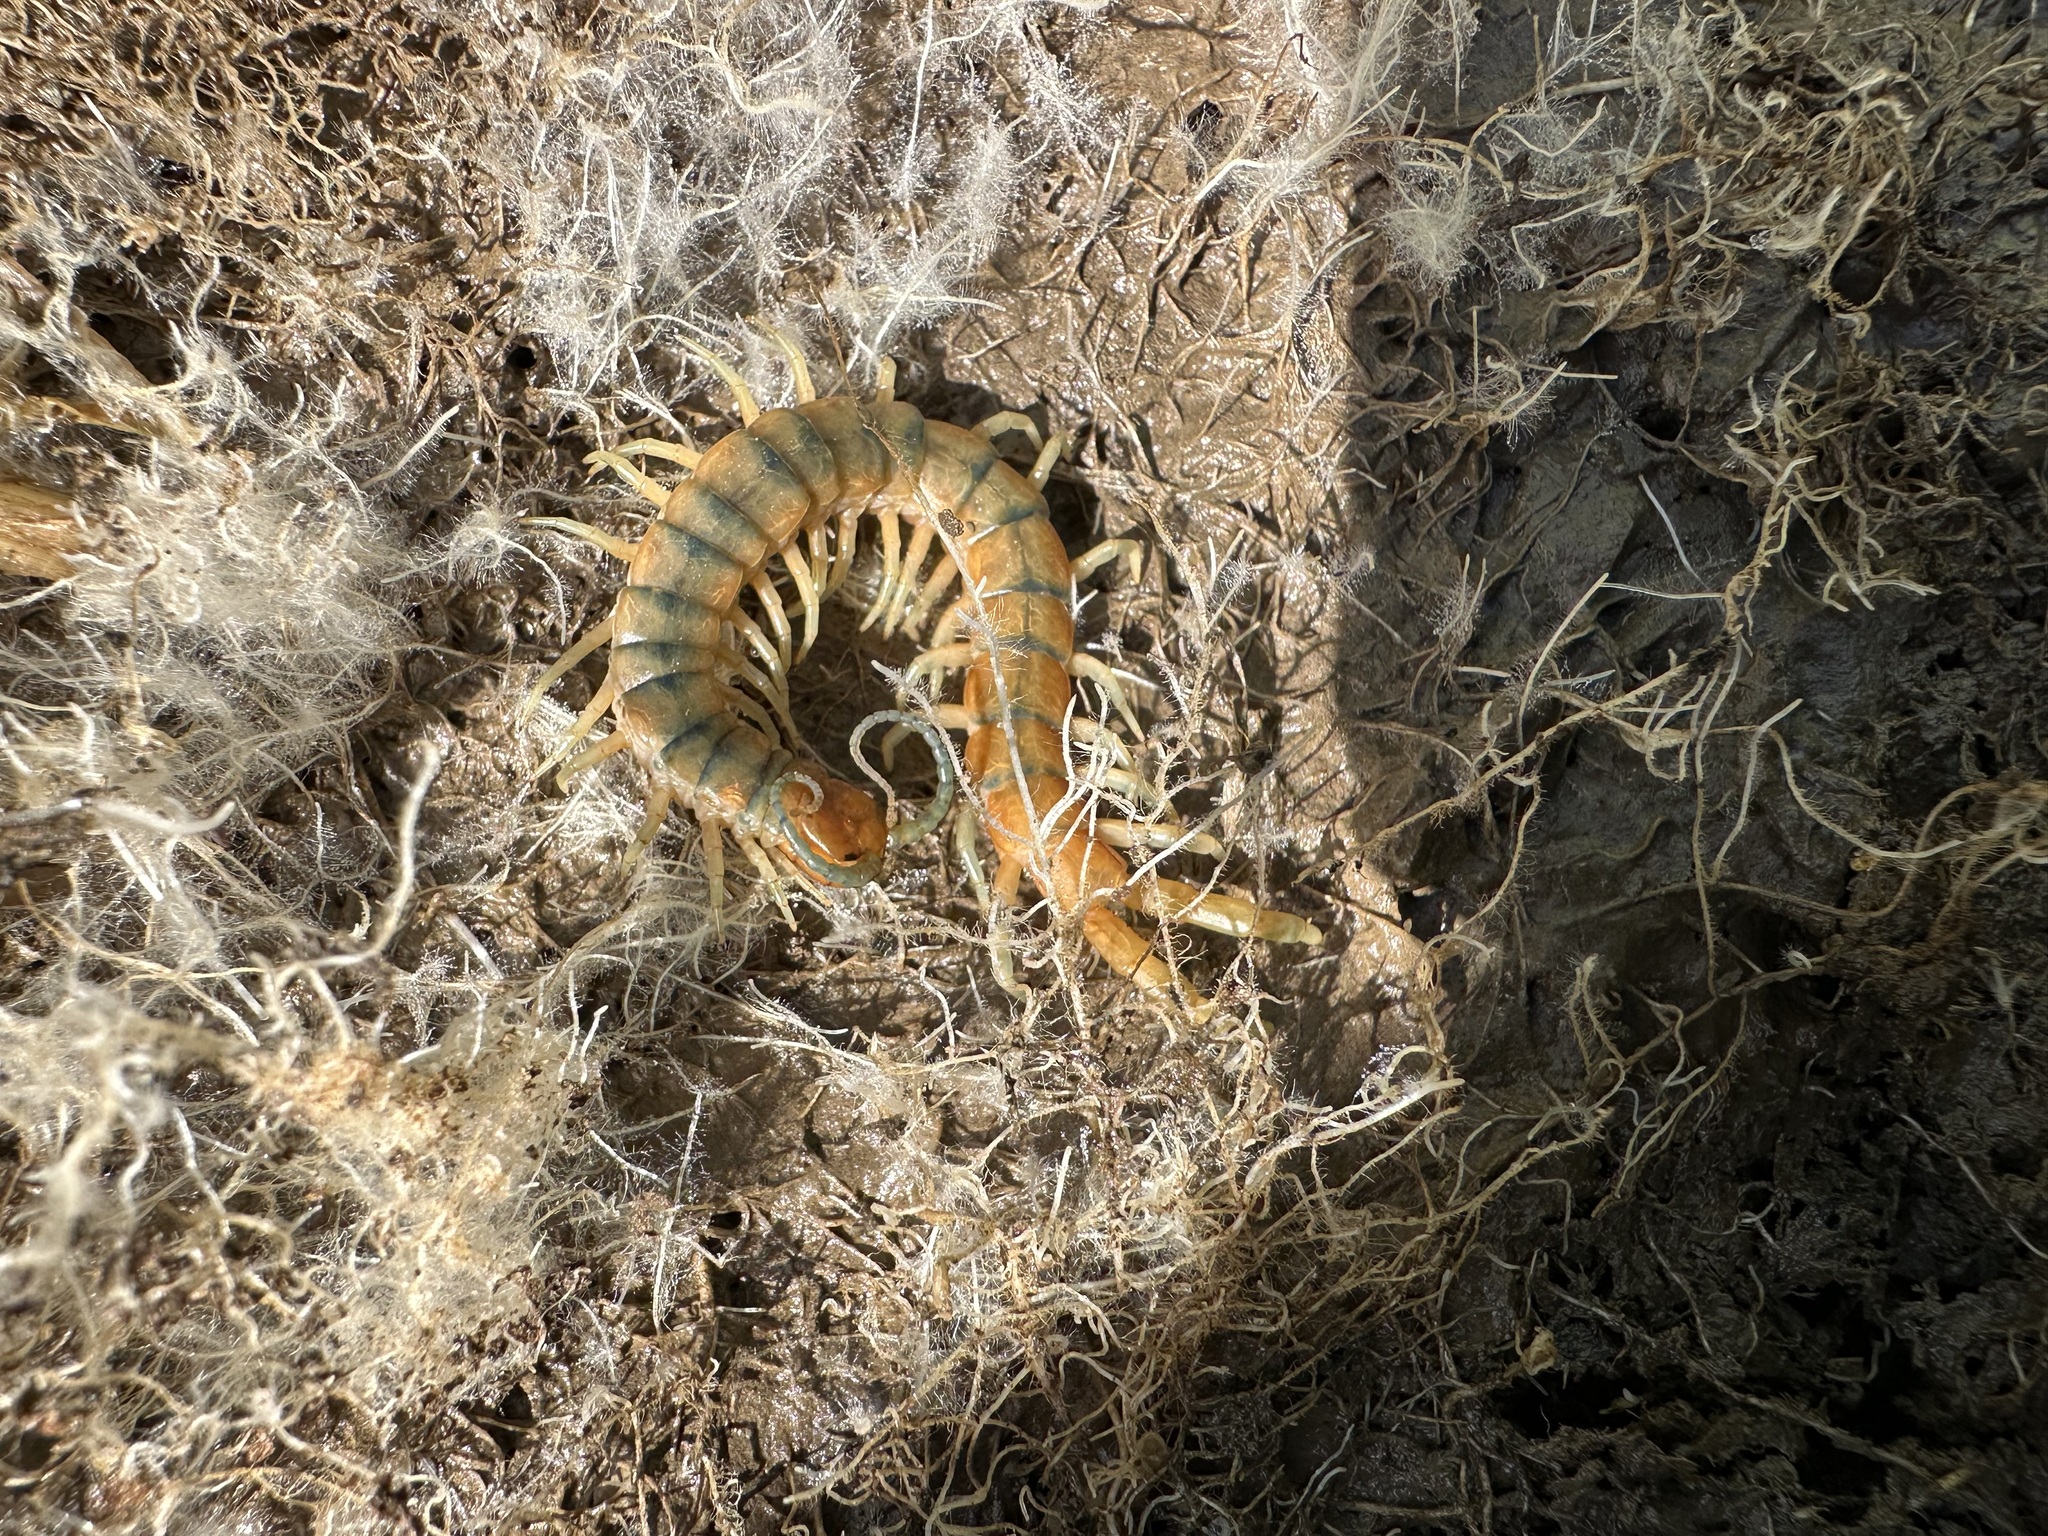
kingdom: Animalia
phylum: Arthropoda
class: Chilopoda
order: Scolopendromorpha
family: Scolopendridae
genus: Scolopendra
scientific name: Scolopendra polymorpha
